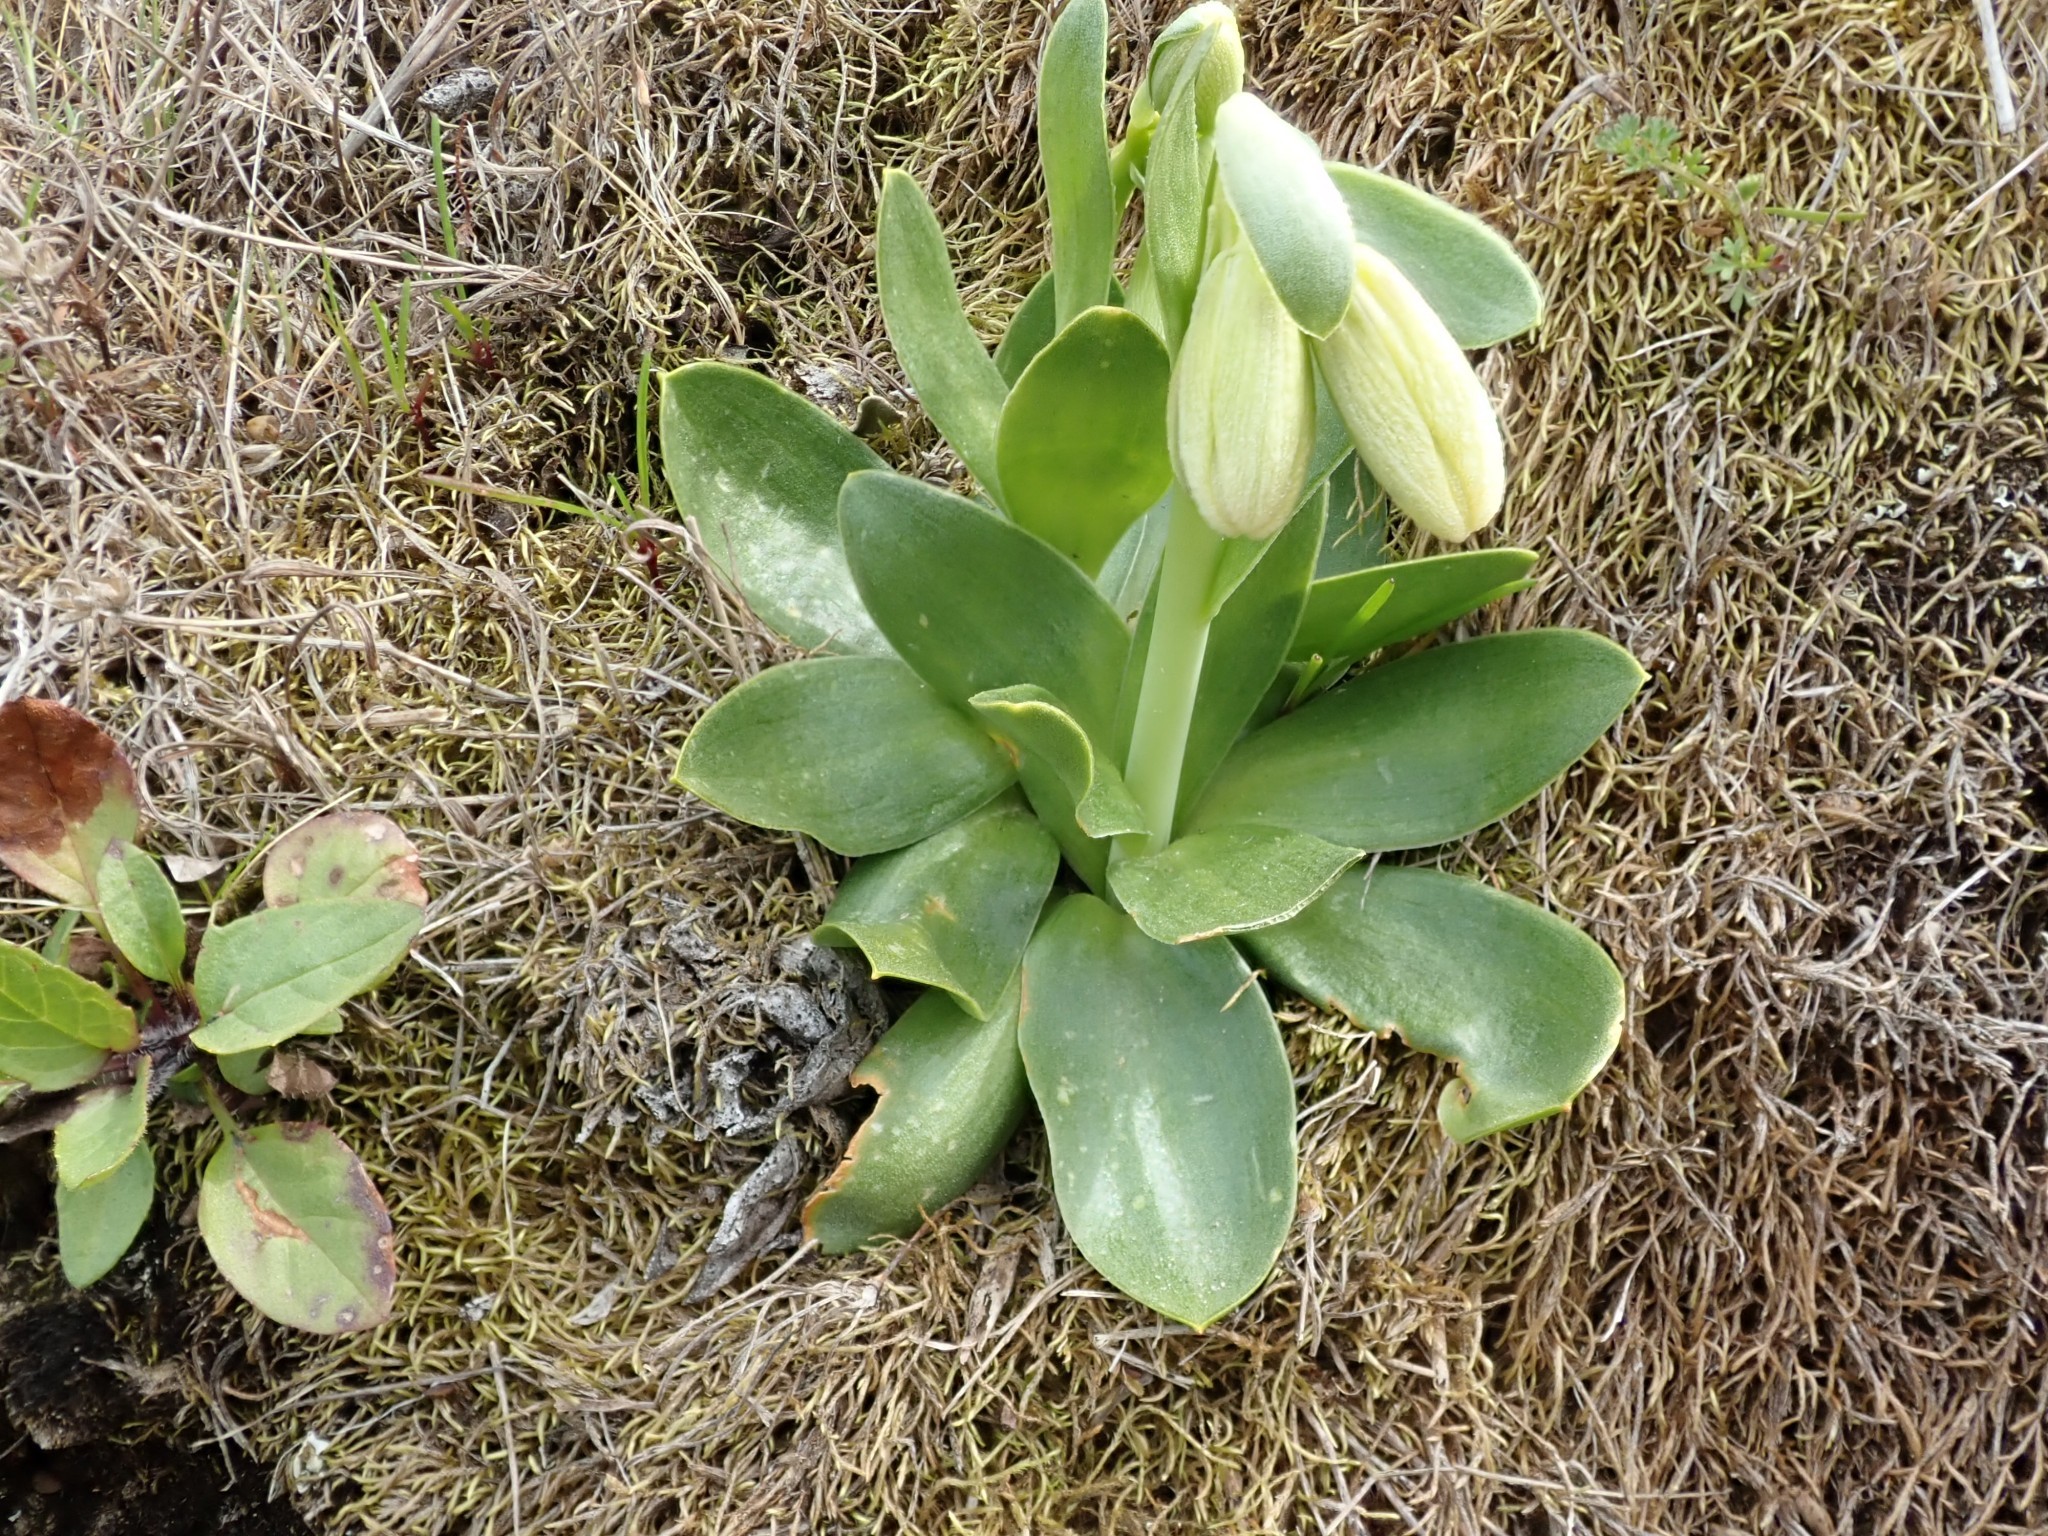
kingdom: Plantae
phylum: Tracheophyta
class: Liliopsida
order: Liliales
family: Liliaceae
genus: Fritillaria
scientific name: Fritillaria liliacea
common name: Fragrant fritillary
